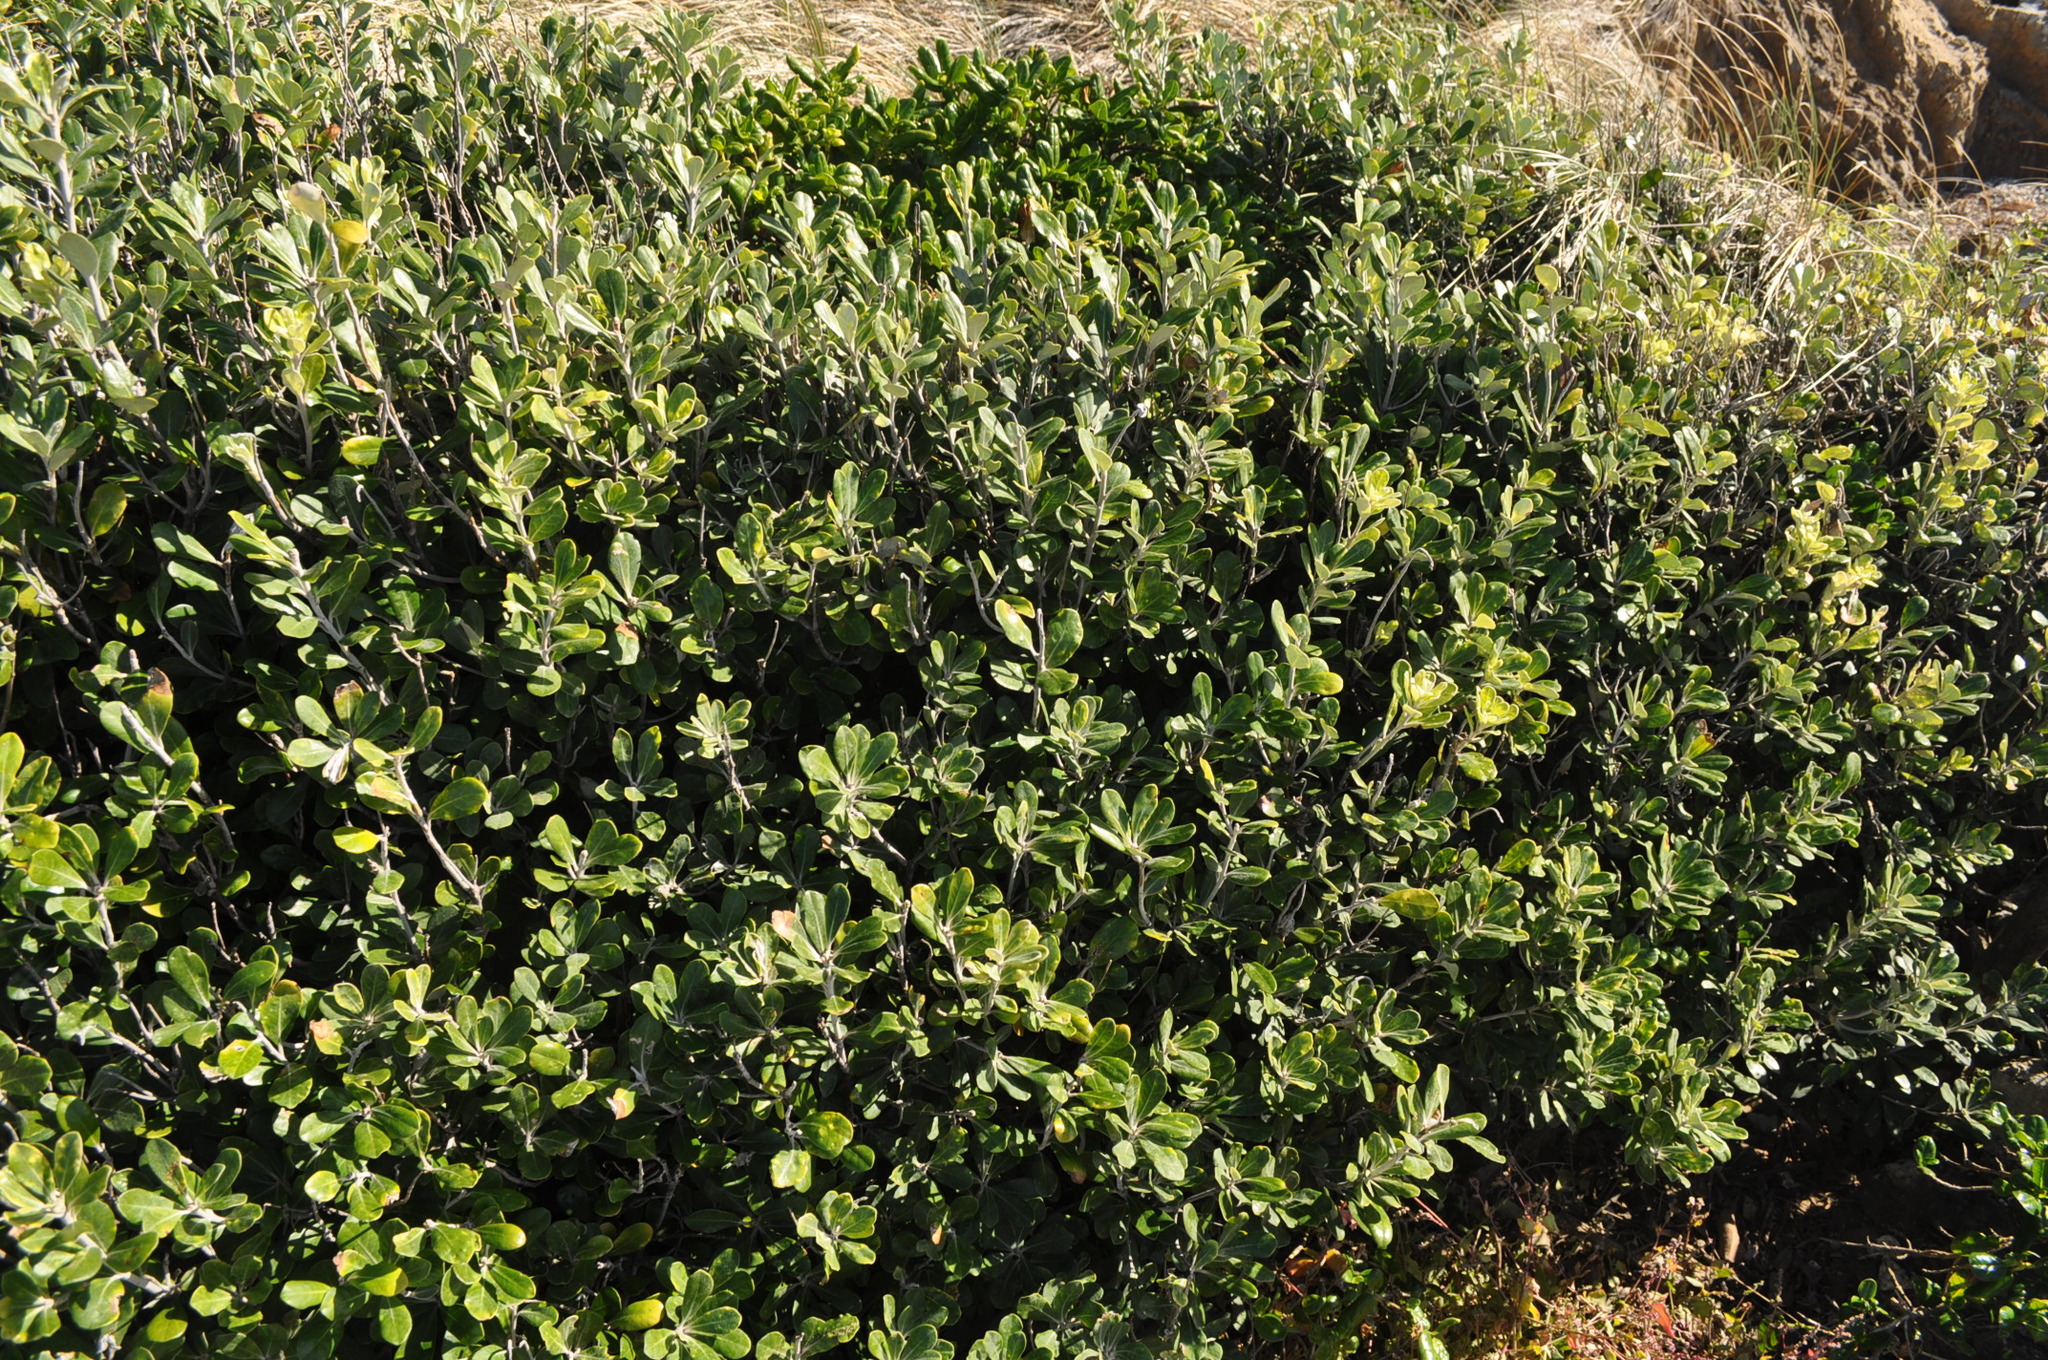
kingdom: Plantae
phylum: Tracheophyta
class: Magnoliopsida
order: Apiales
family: Pittosporaceae
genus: Pittosporum
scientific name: Pittosporum crassifolium
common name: Karo
